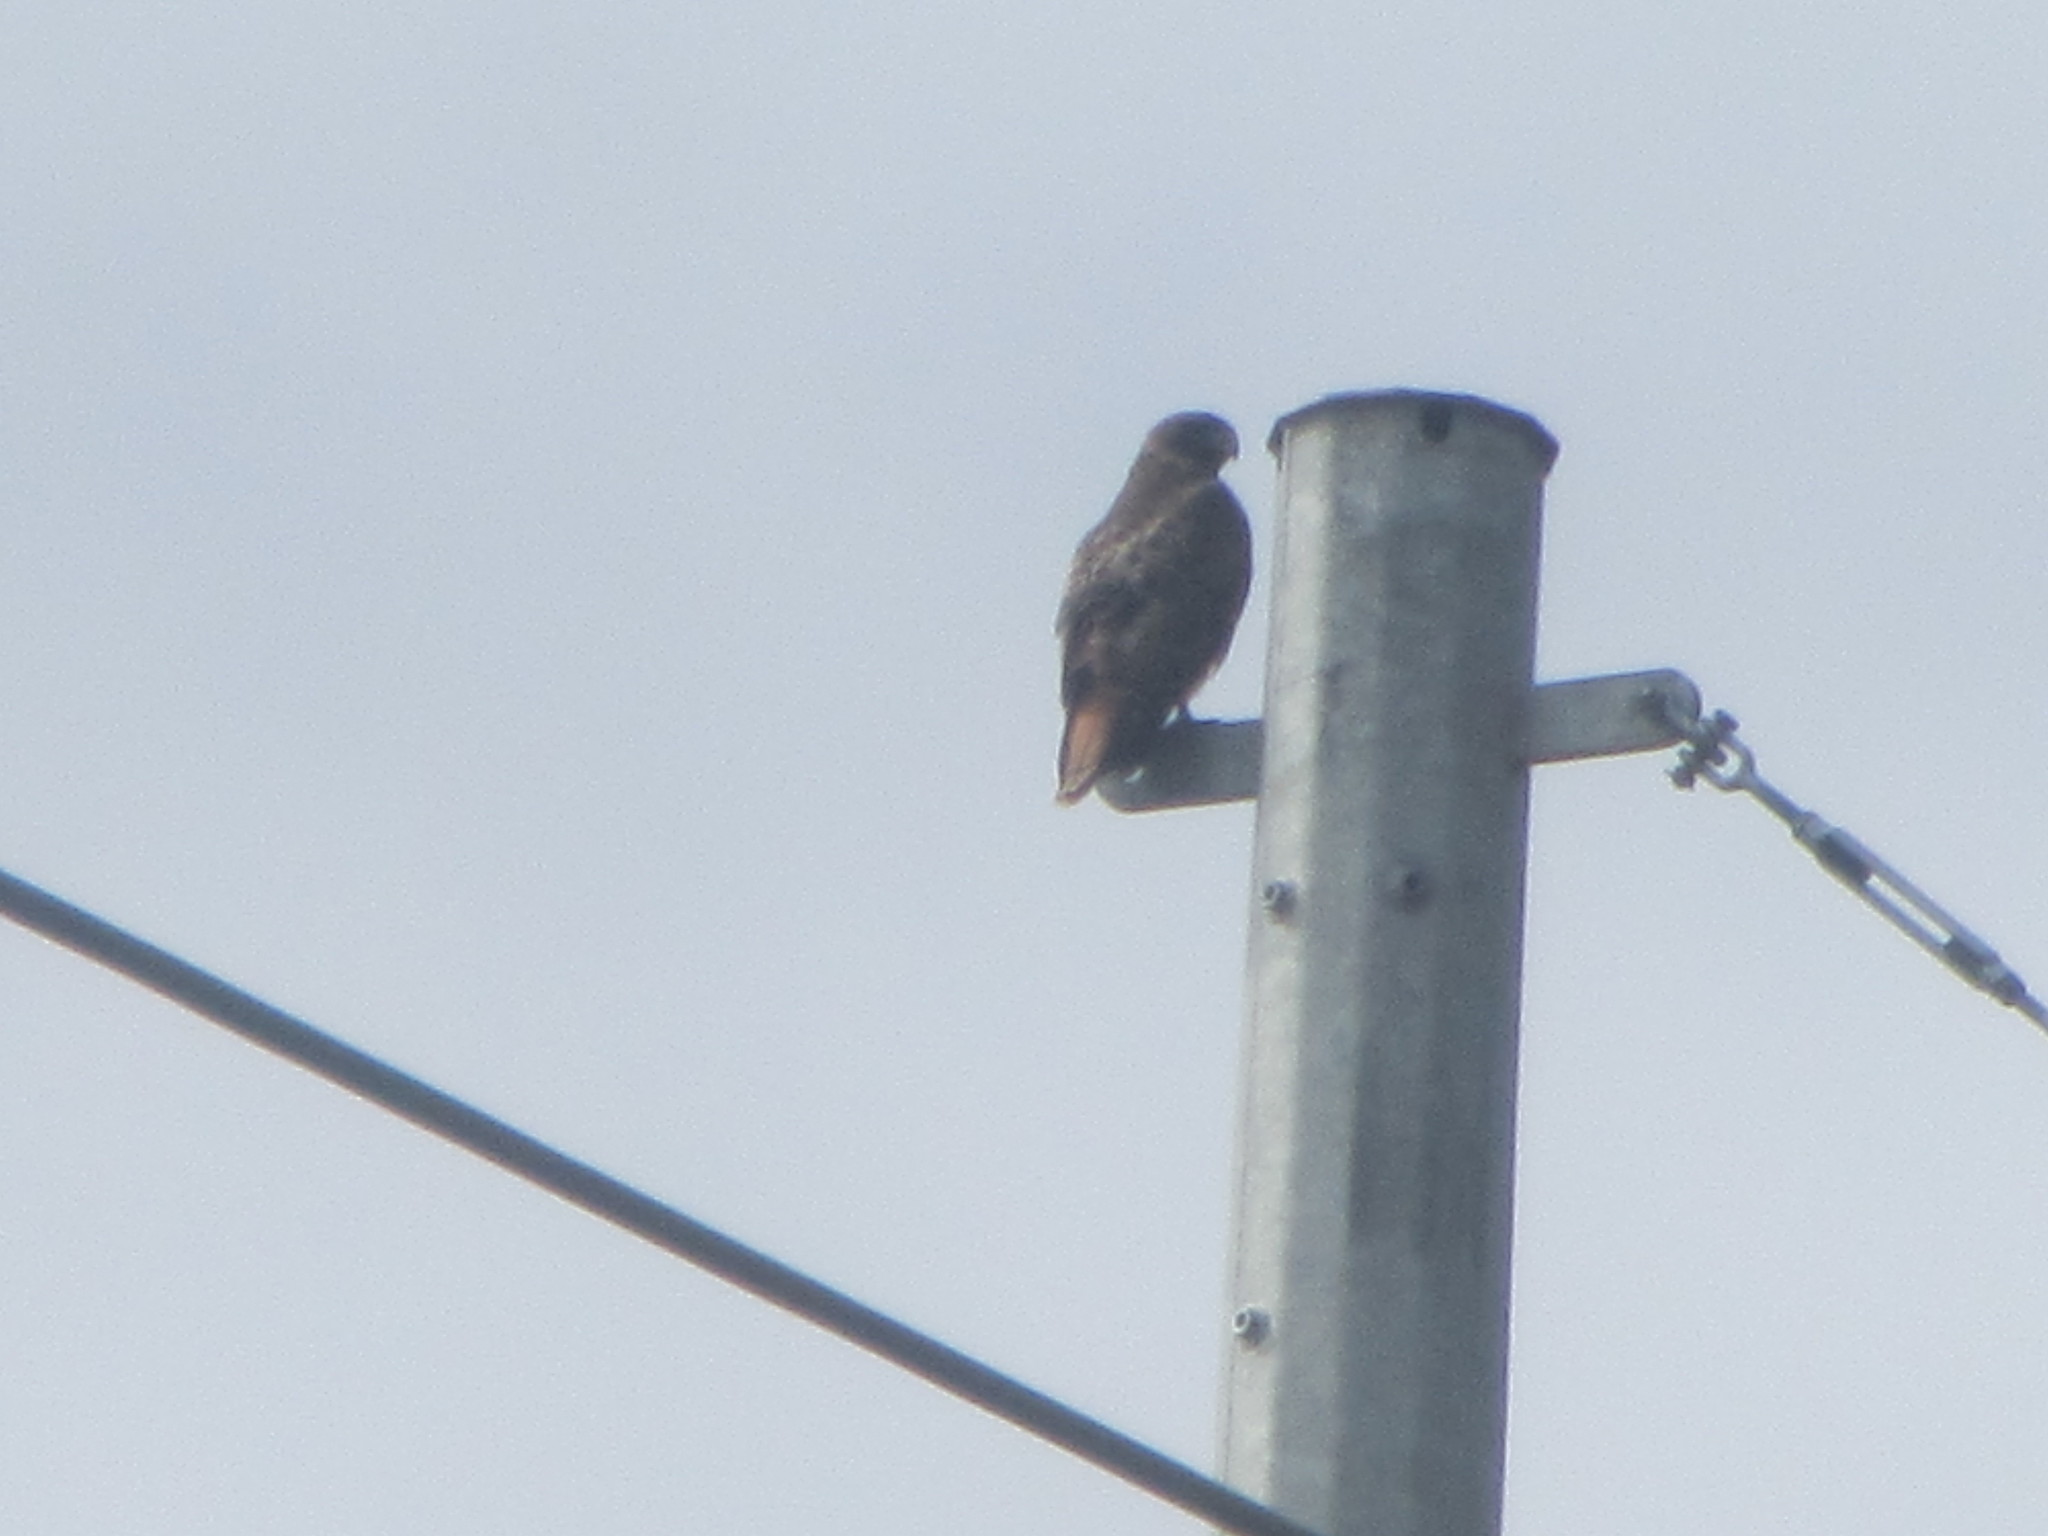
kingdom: Animalia
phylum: Chordata
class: Aves
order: Accipitriformes
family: Accipitridae
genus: Buteo
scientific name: Buteo jamaicensis
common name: Red-tailed hawk
